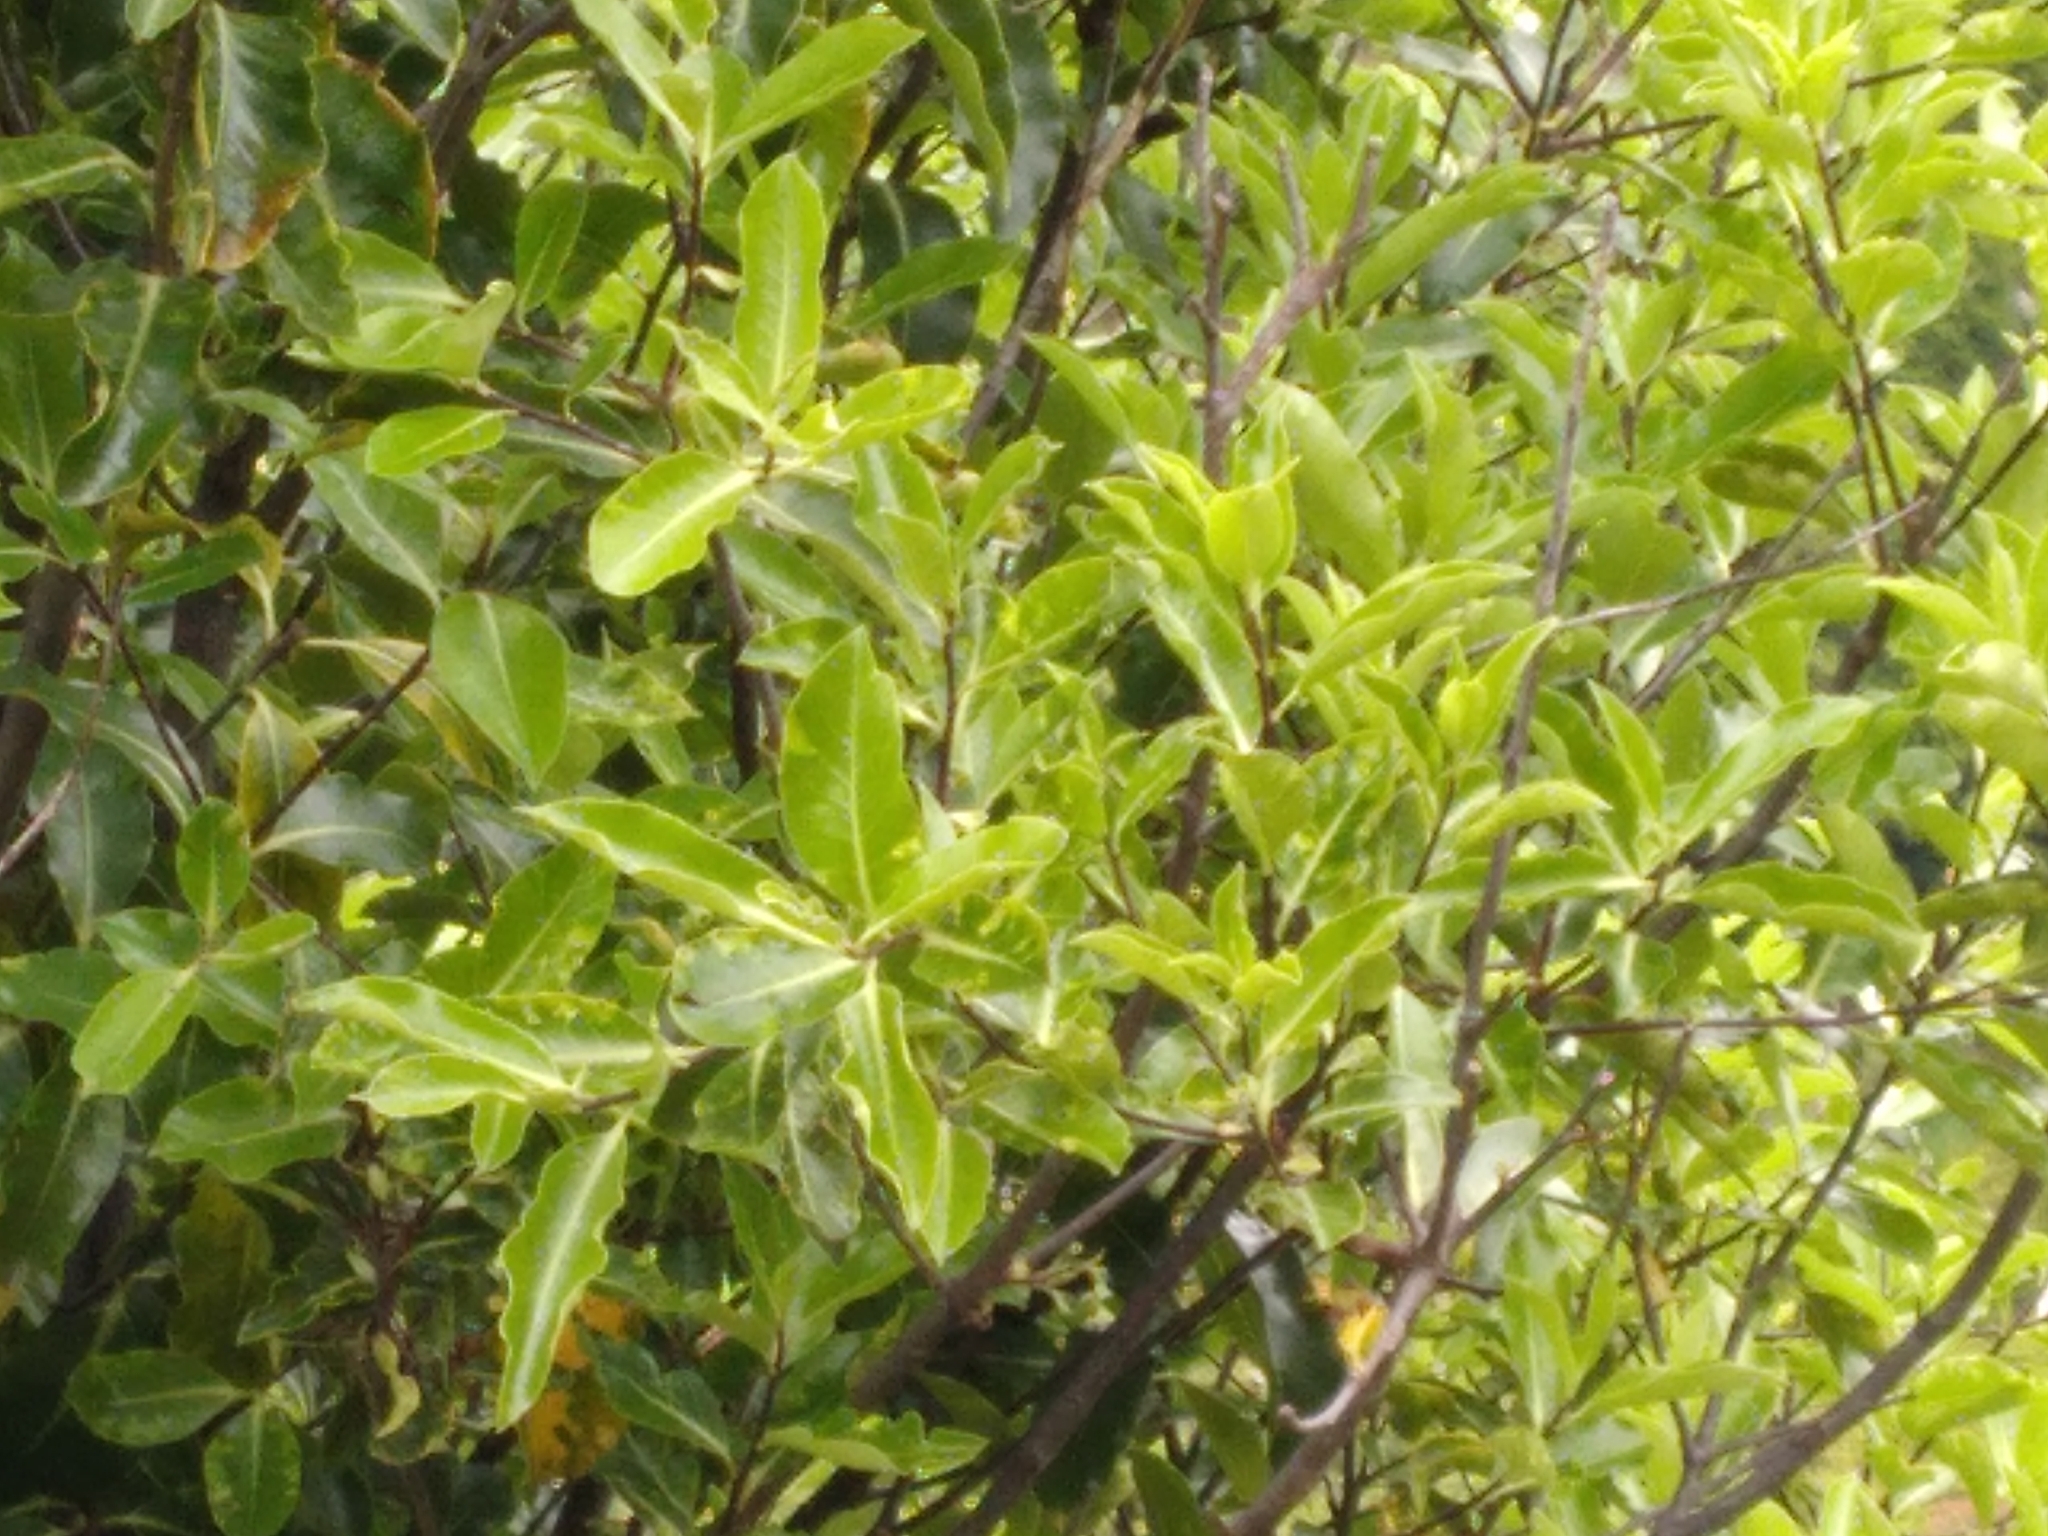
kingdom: Plantae
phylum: Tracheophyta
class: Magnoliopsida
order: Apiales
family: Pittosporaceae
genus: Pittosporum
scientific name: Pittosporum tenuifolium
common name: Kohuhu
